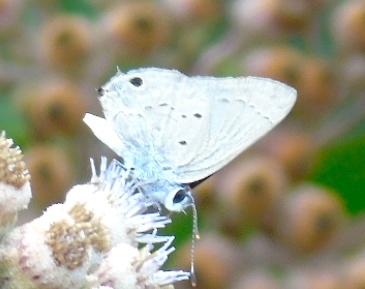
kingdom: Animalia
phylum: Arthropoda
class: Insecta
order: Lepidoptera
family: Lycaenidae
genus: Callicista
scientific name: Callicista columella
